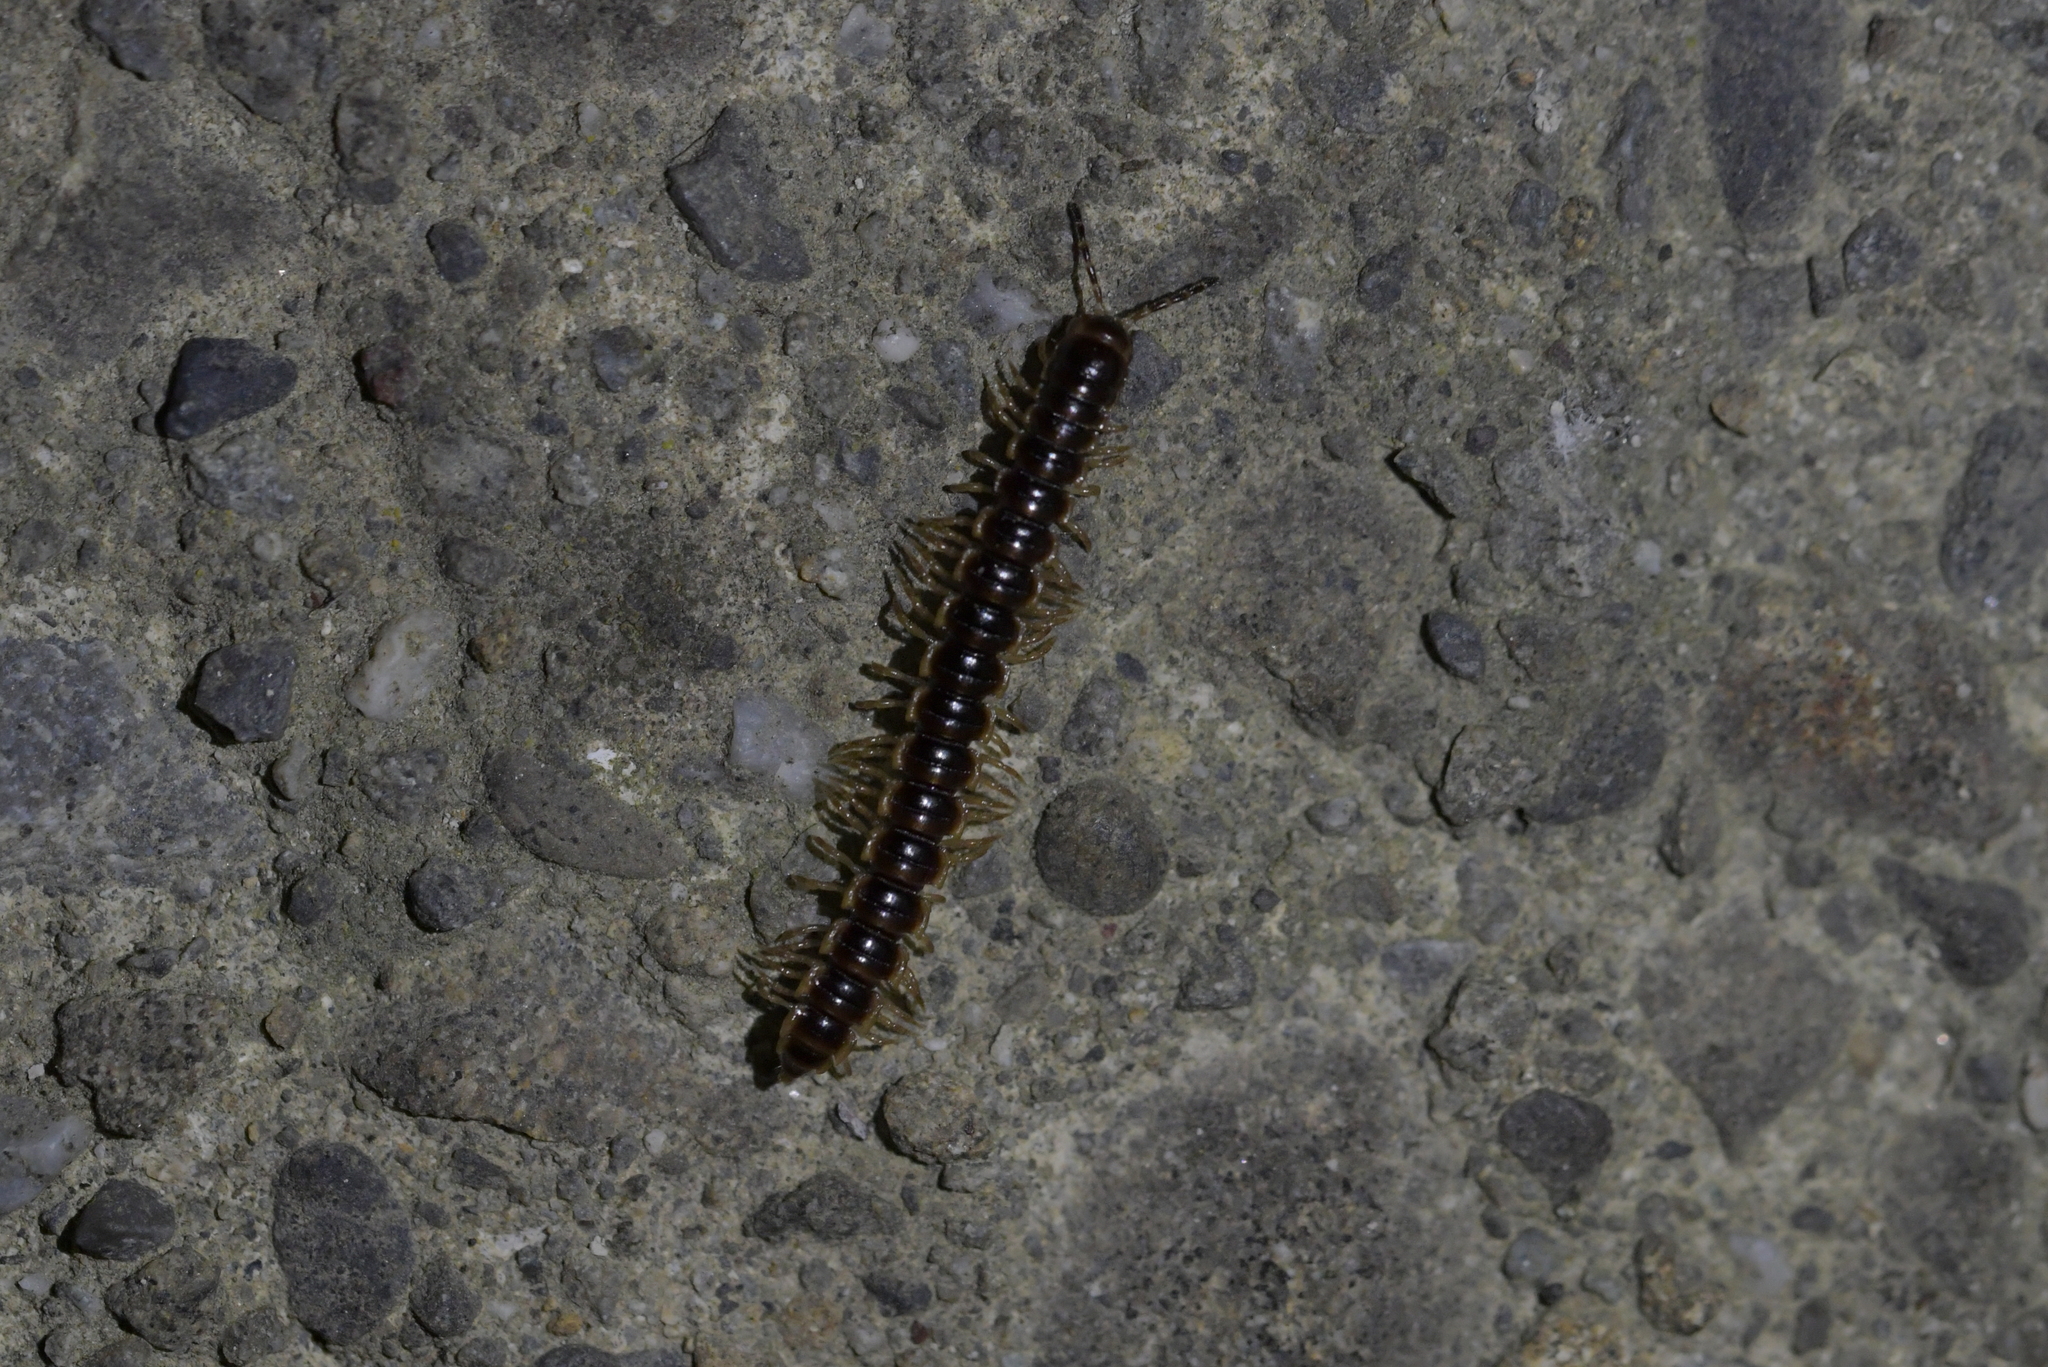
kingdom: Animalia
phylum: Arthropoda
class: Diplopoda
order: Polydesmida
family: Paradoxosomatidae
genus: Oxidus
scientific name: Oxidus gracilis
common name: Greenhouse millipede
